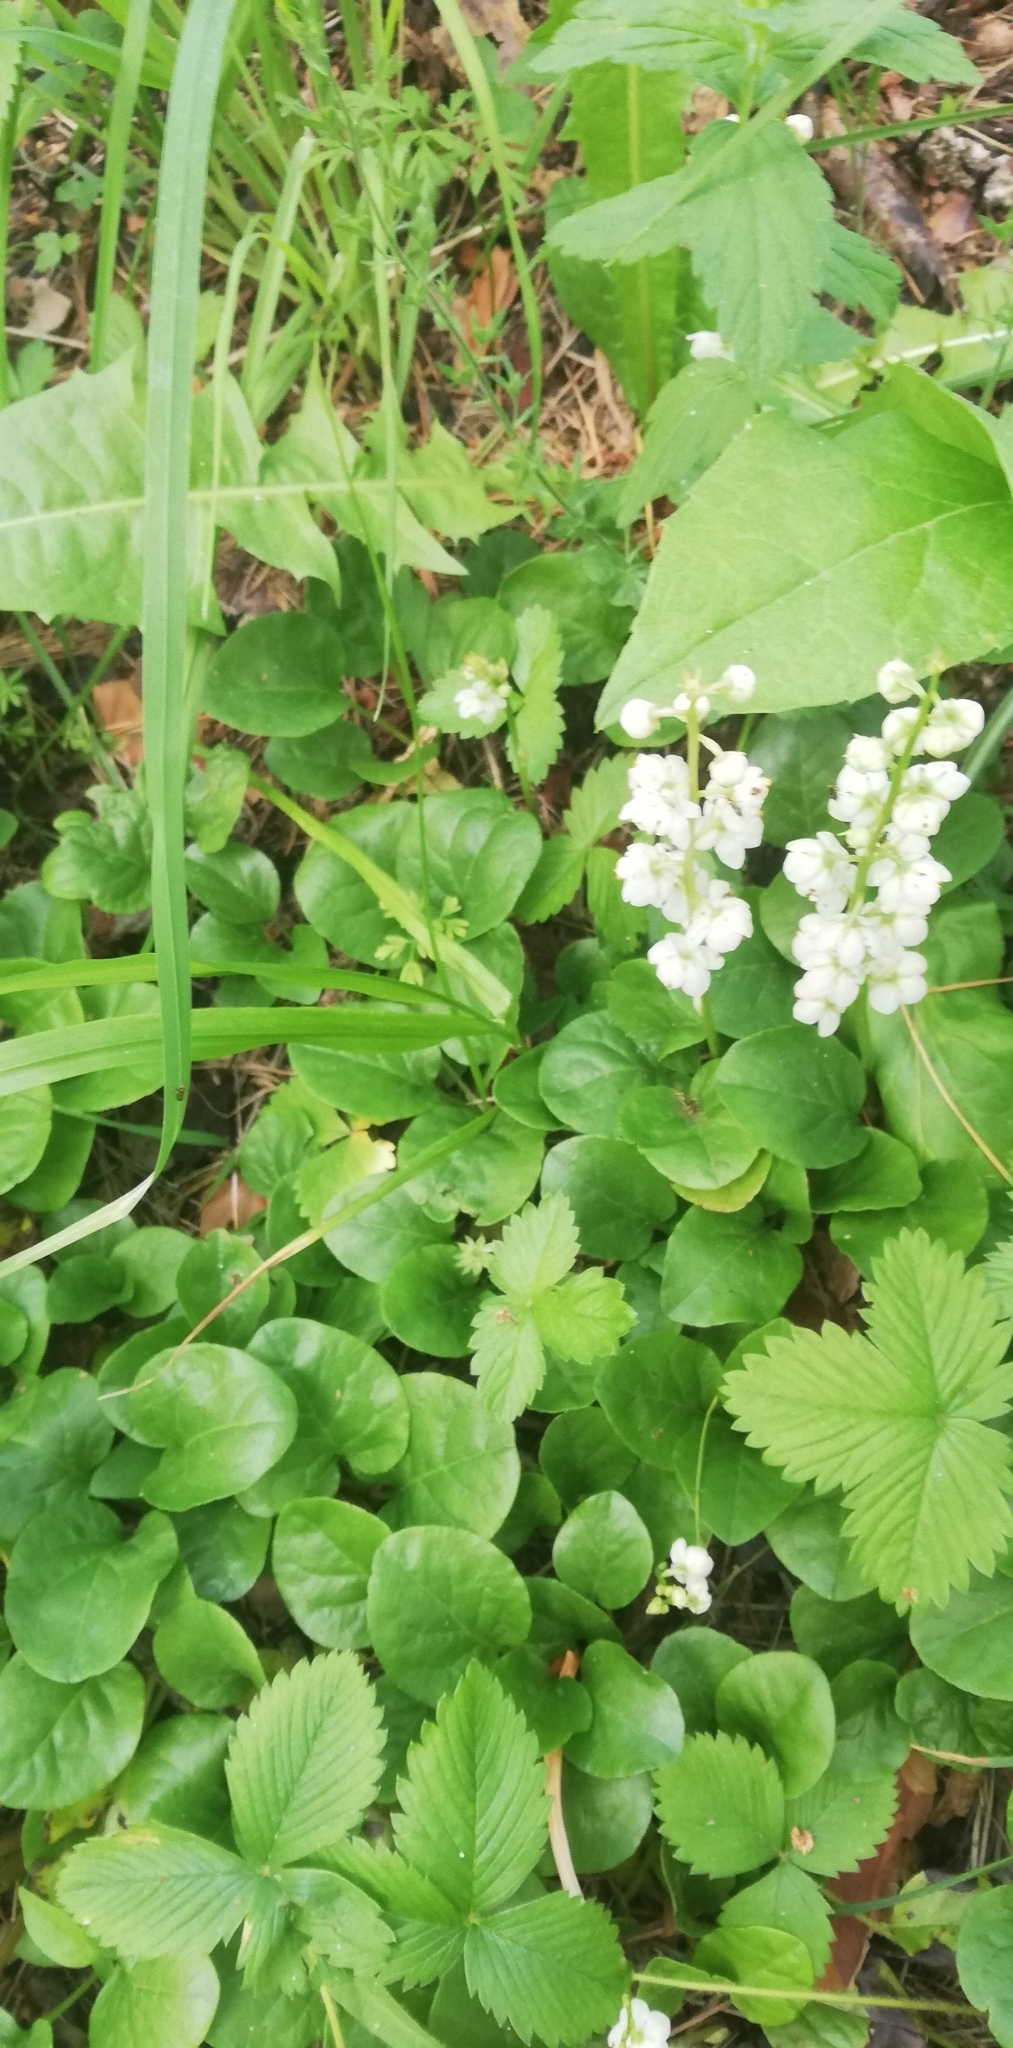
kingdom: Plantae
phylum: Tracheophyta
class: Magnoliopsida
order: Ericales
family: Ericaceae
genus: Pyrola
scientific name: Pyrola rotundifolia
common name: Round-leaved wintergreen
